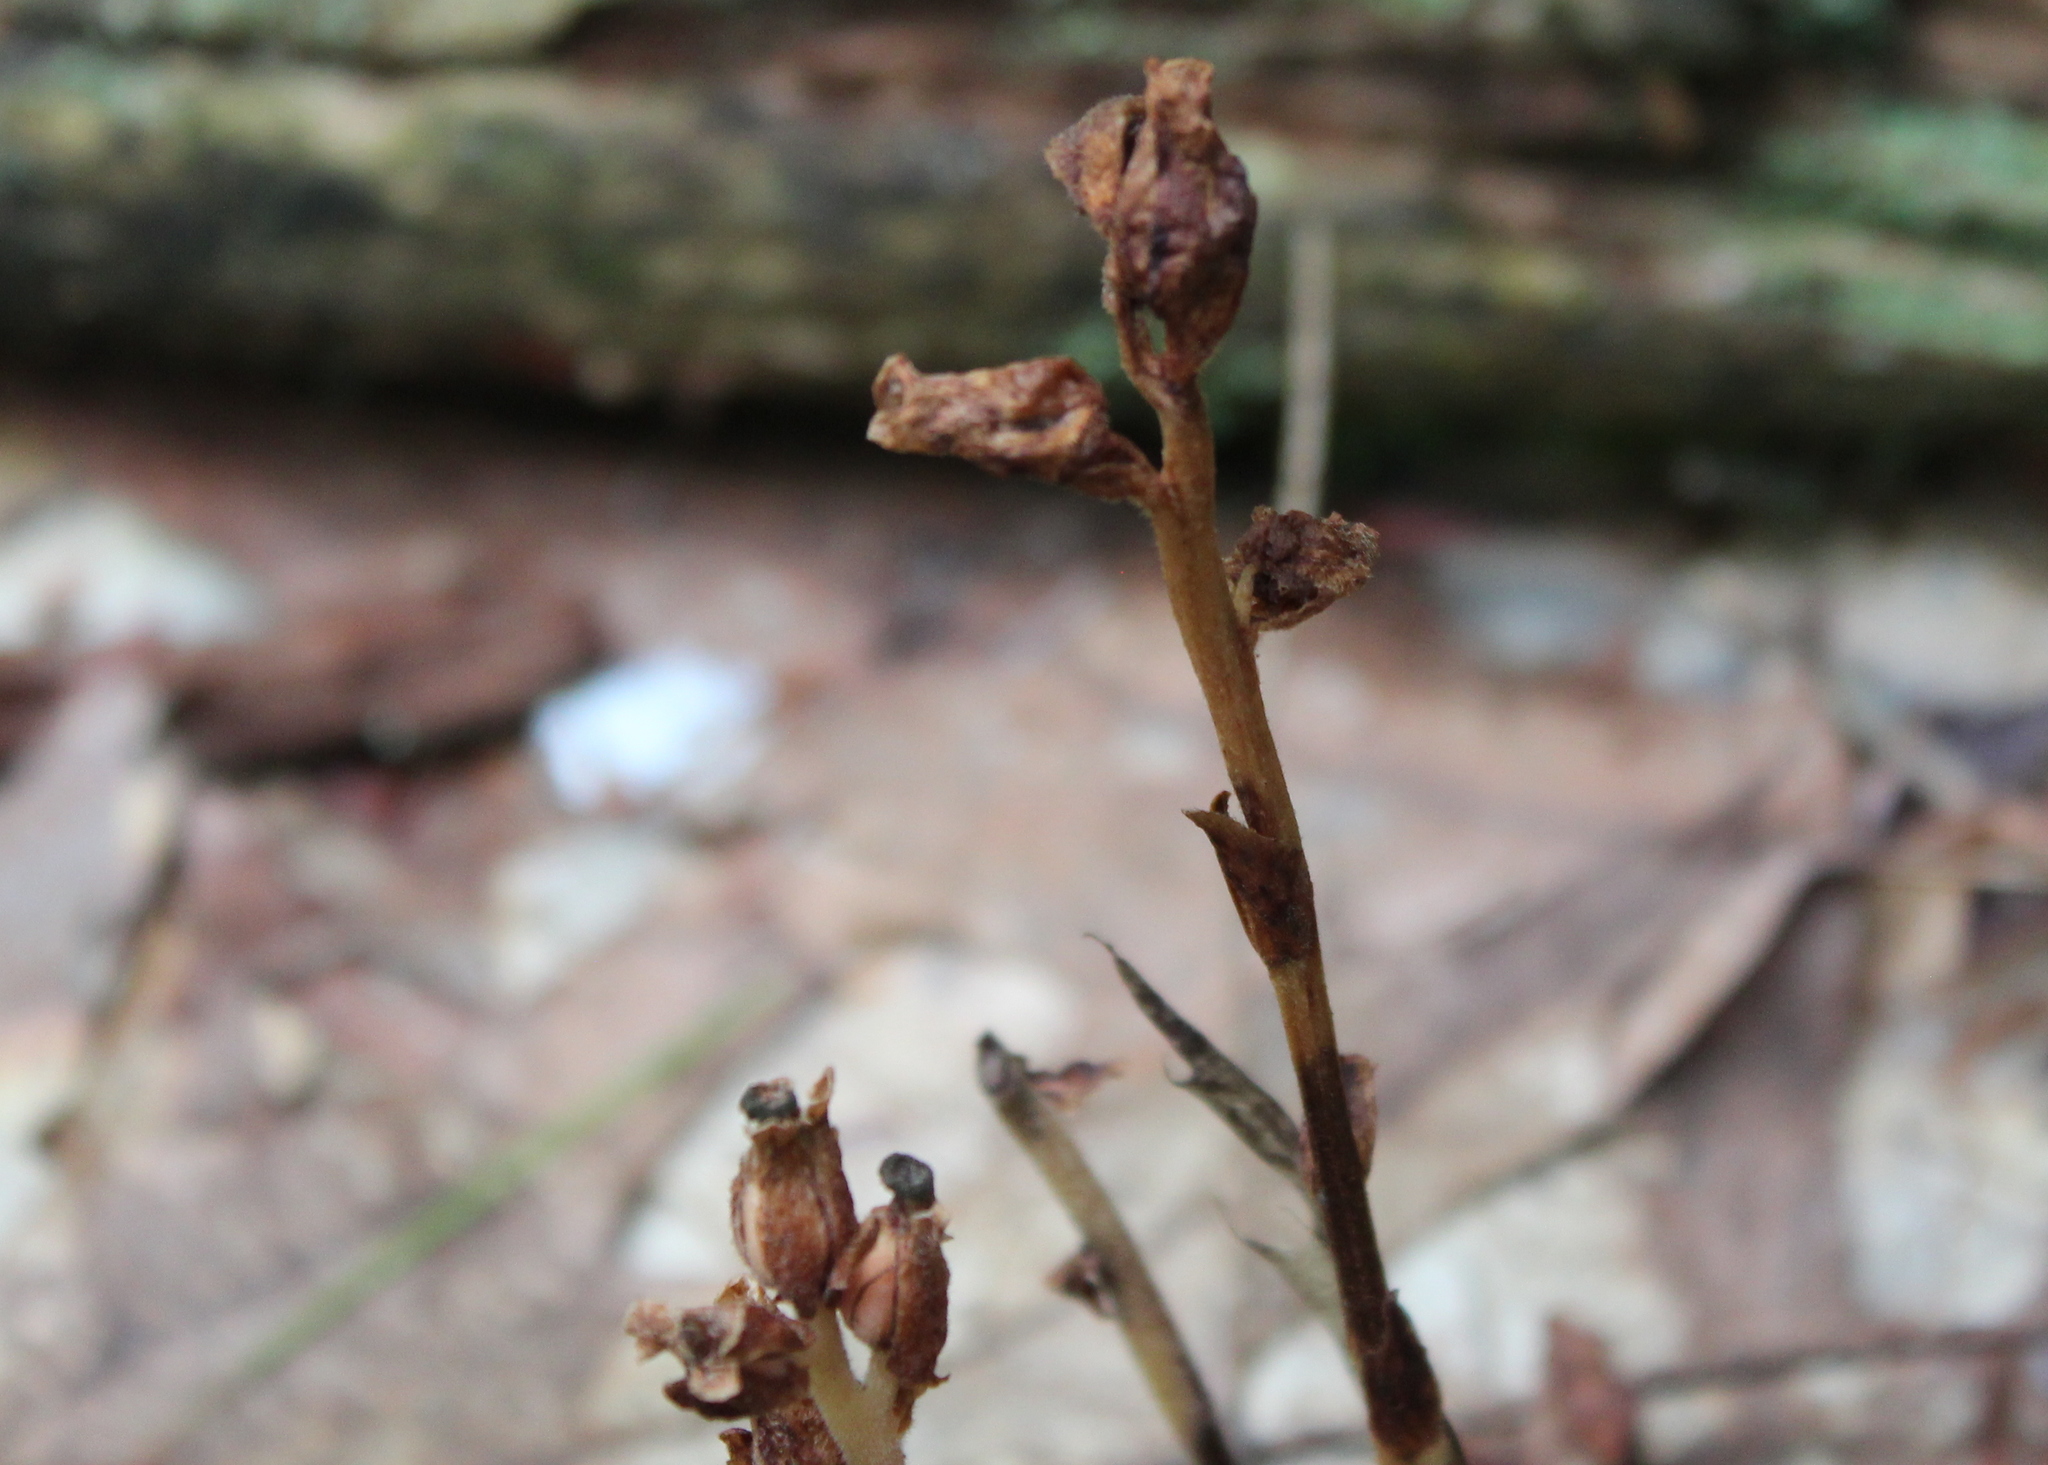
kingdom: Plantae
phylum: Tracheophyta
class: Magnoliopsida
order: Ericales
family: Ericaceae
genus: Hypopitys
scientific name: Hypopitys monotropa
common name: Yellow bird's-nest
